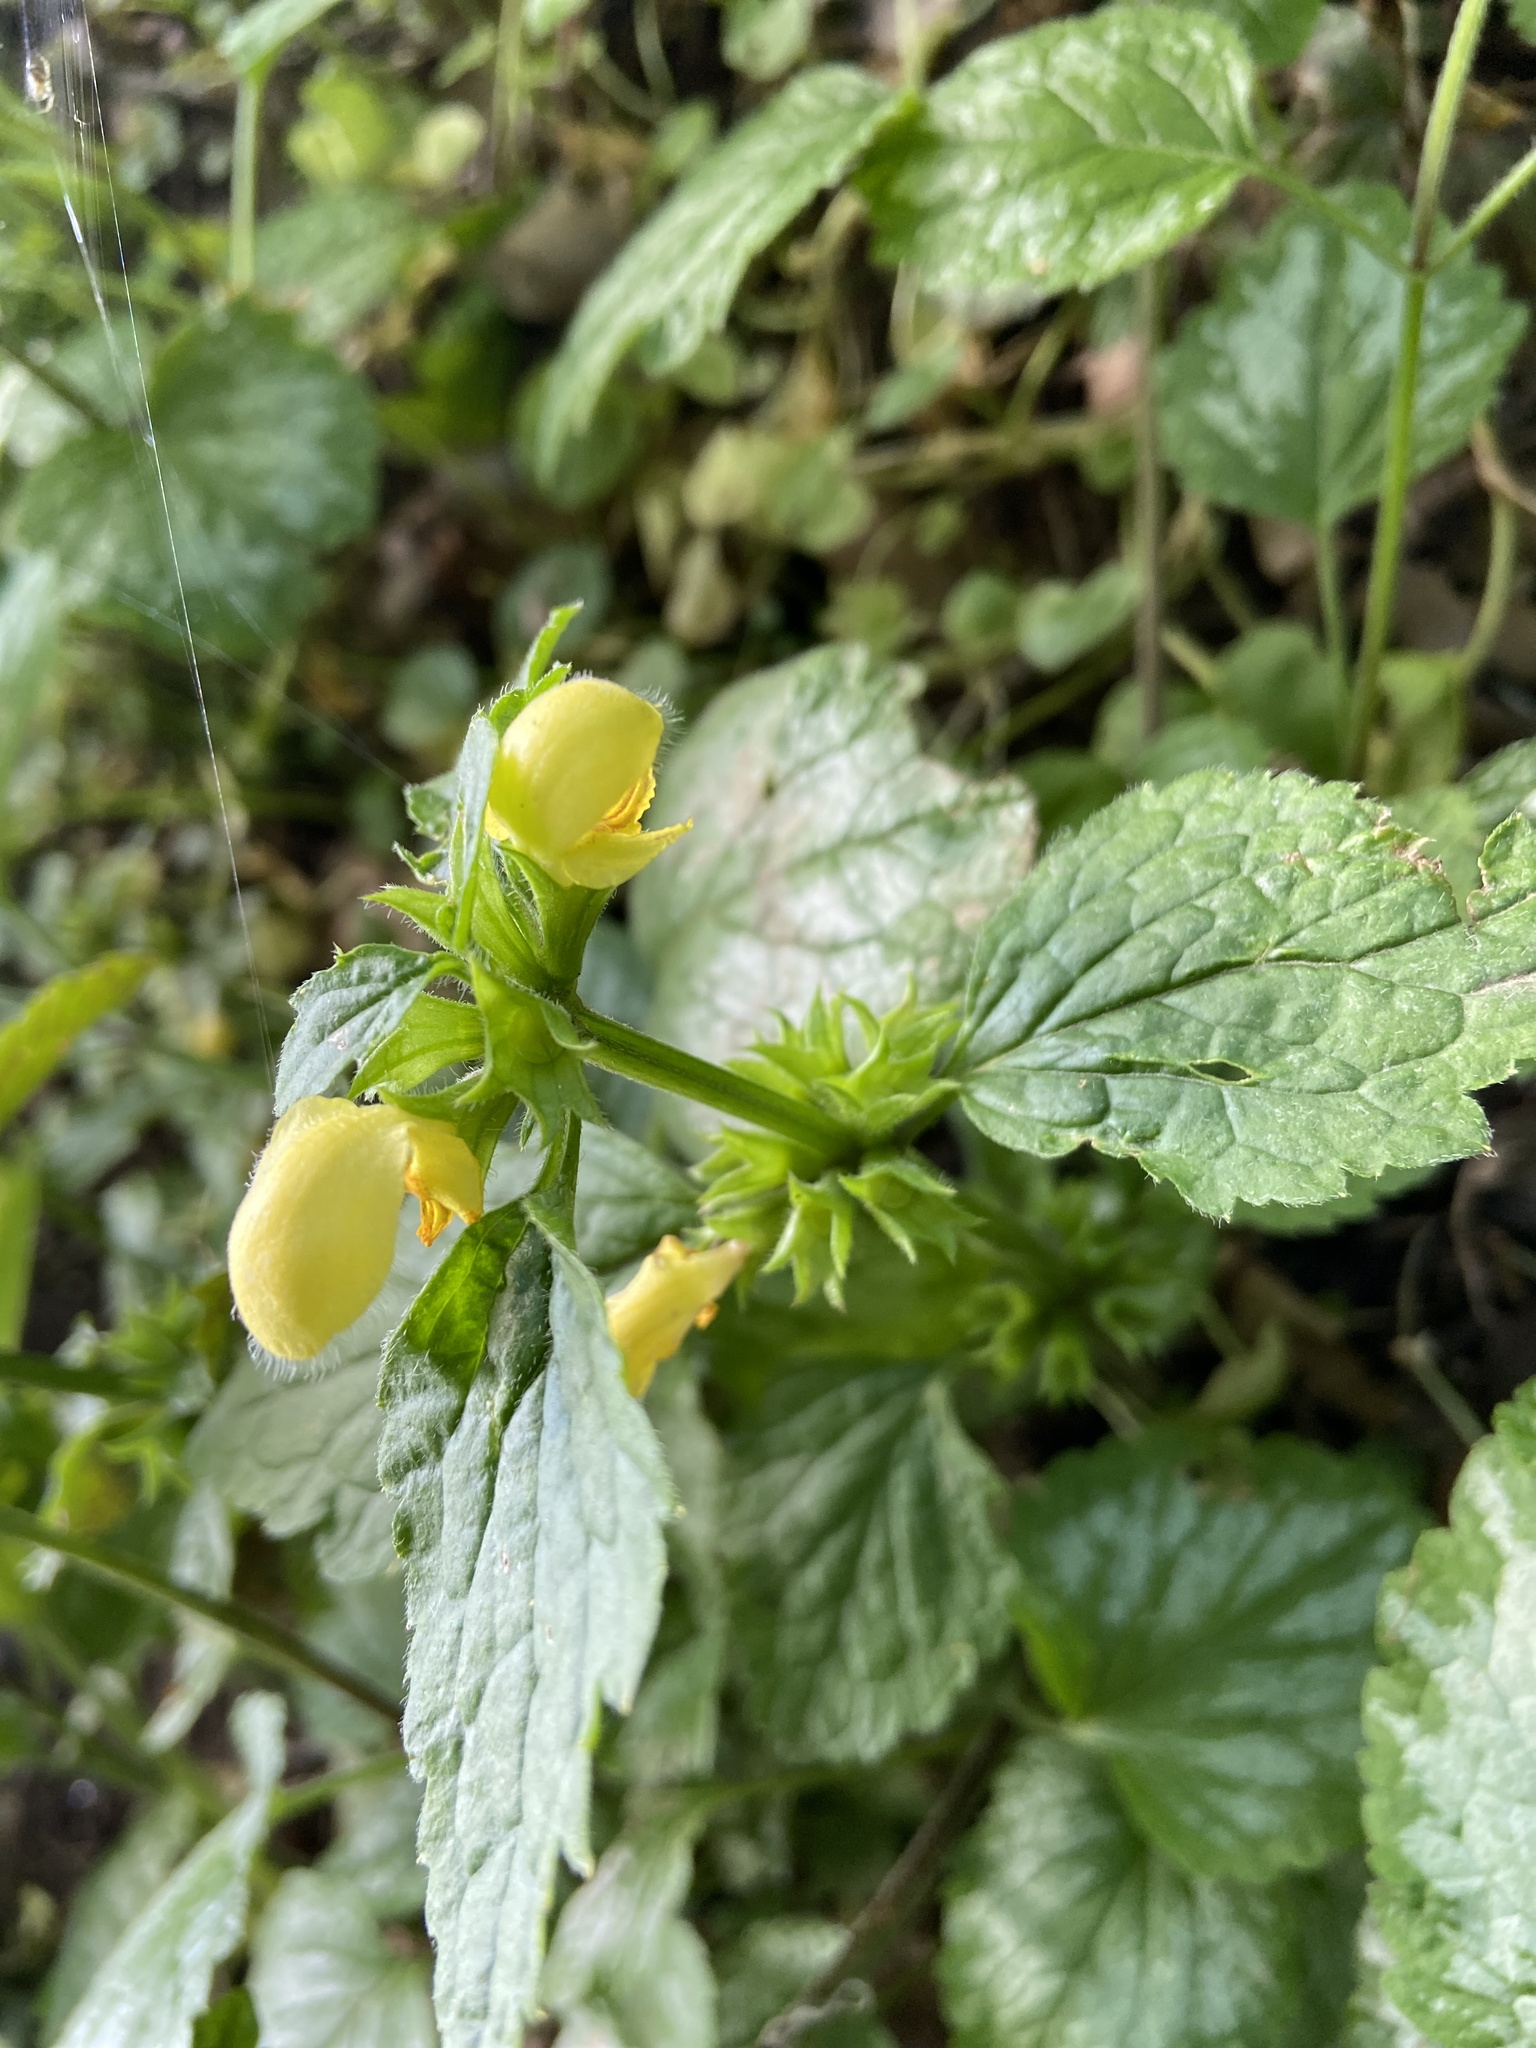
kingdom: Plantae
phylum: Tracheophyta
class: Magnoliopsida
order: Lamiales
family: Lamiaceae
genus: Lamium
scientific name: Lamium galeobdolon
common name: Yellow archangel
